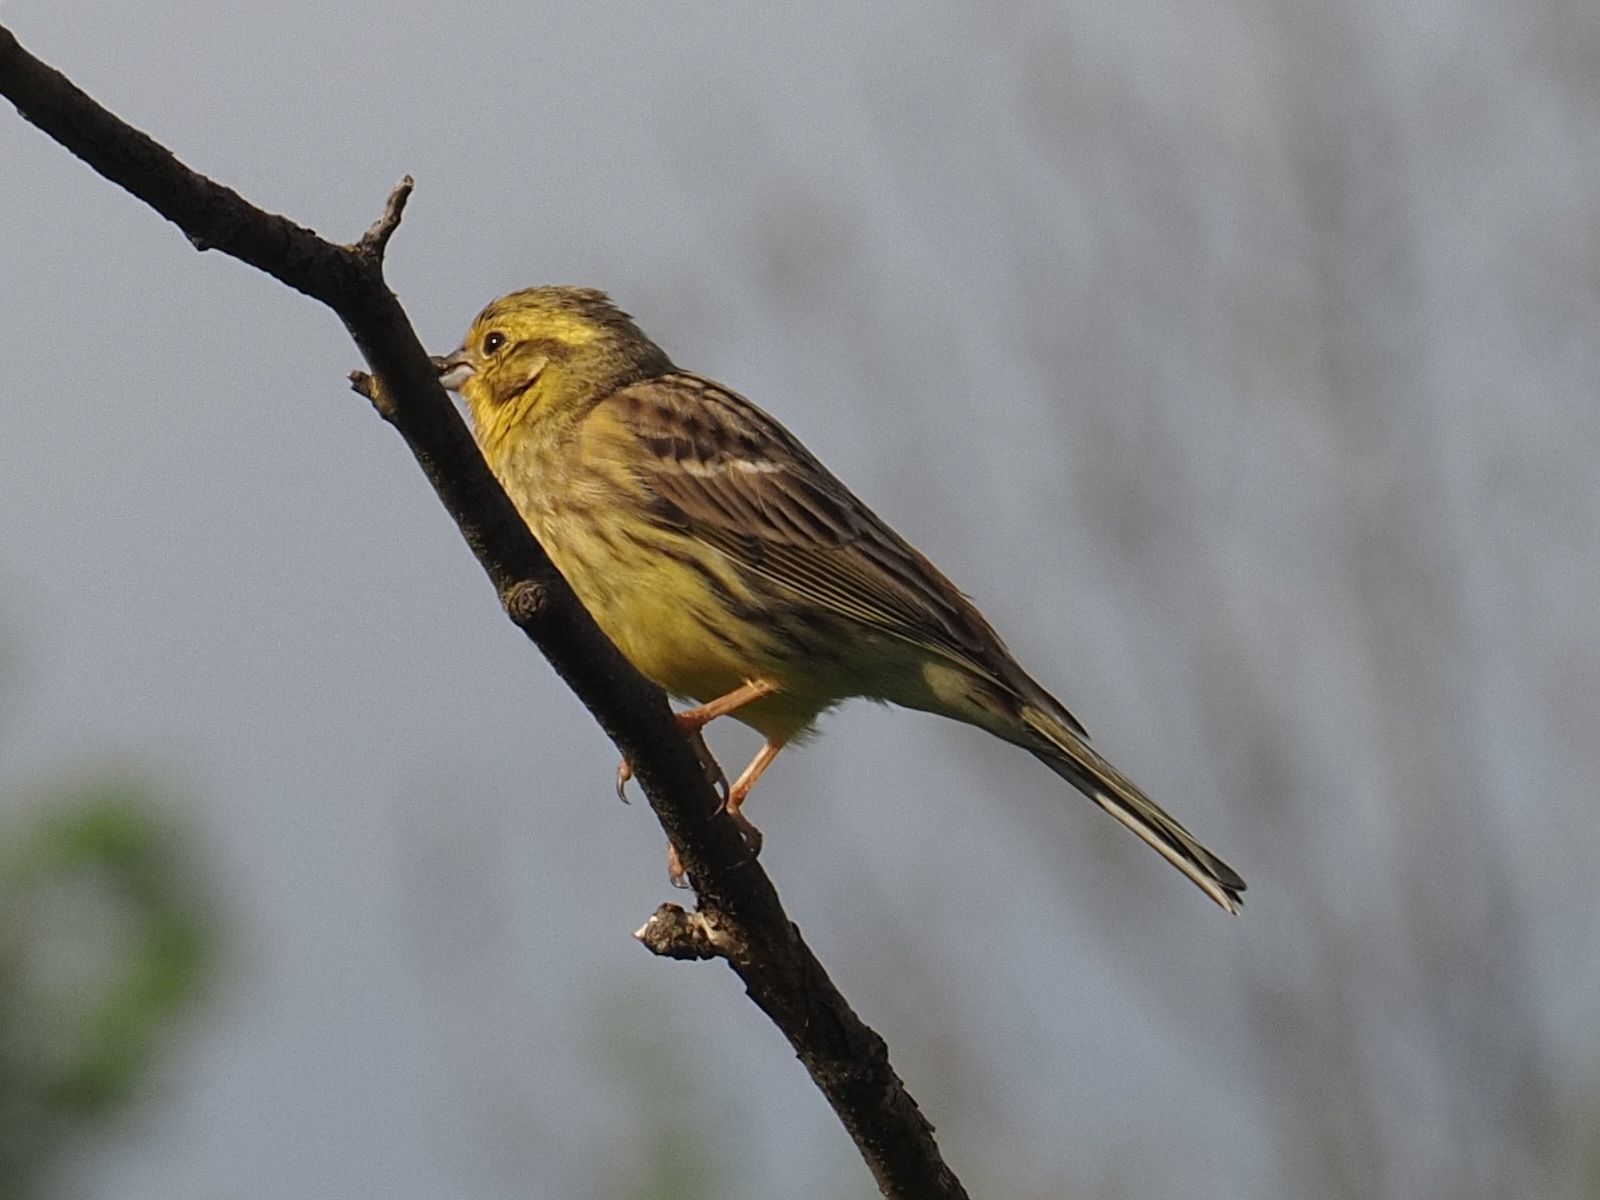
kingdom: Animalia
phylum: Chordata
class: Aves
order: Passeriformes
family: Emberizidae
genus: Emberiza
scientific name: Emberiza citrinella
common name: Yellowhammer
